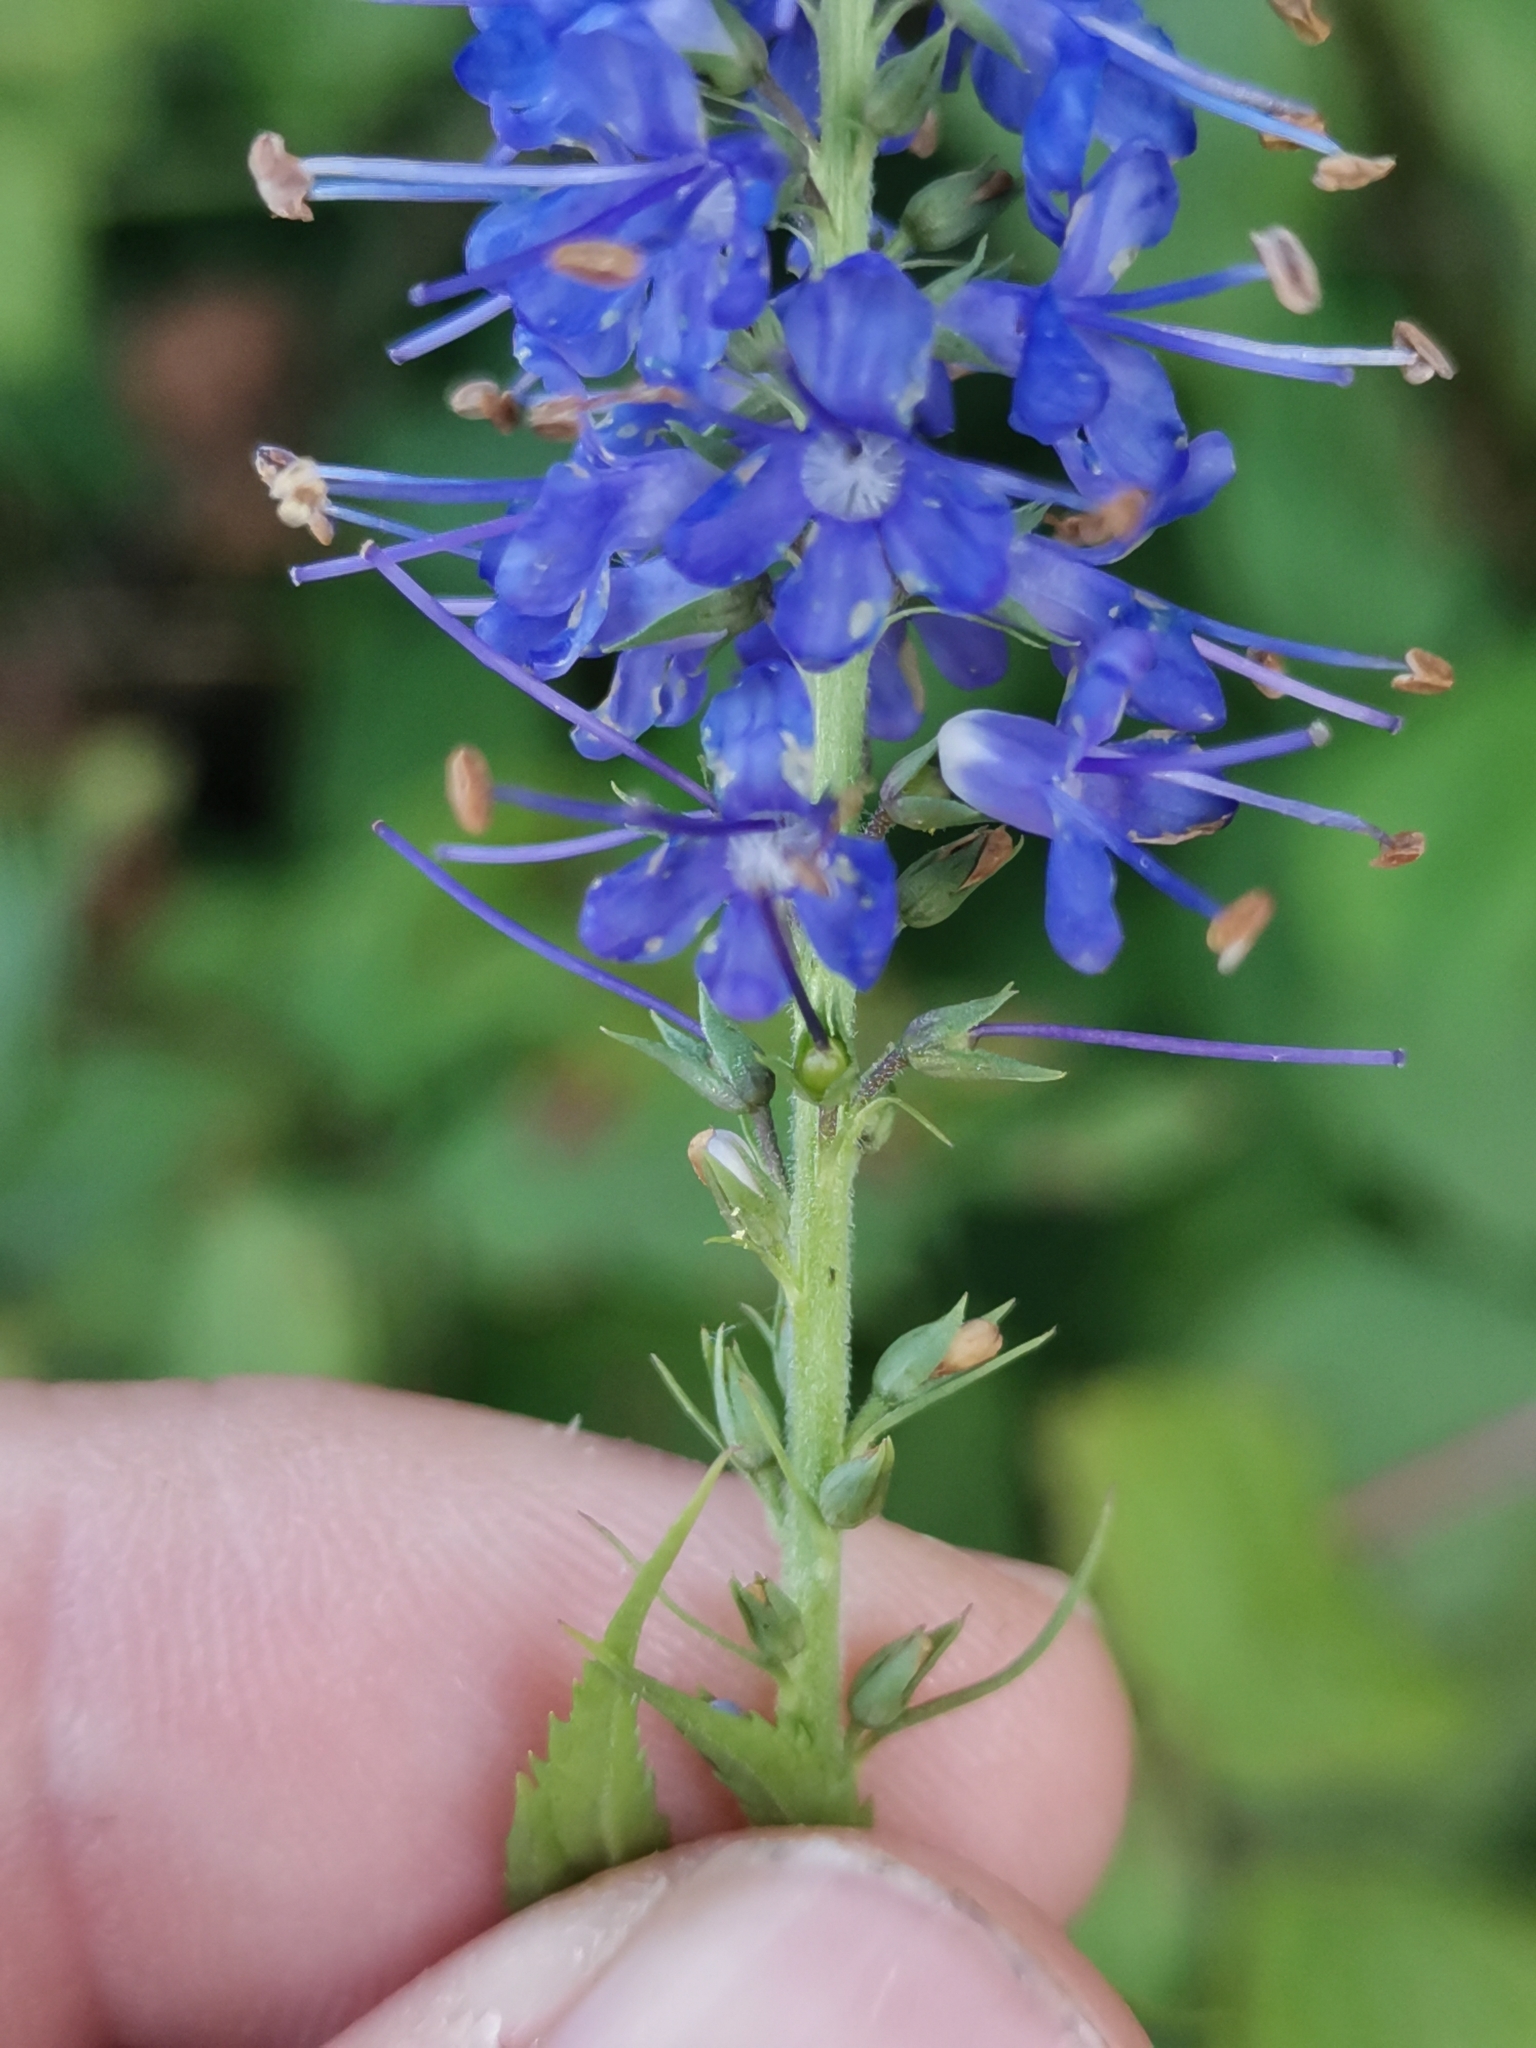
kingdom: Plantae
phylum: Tracheophyta
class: Magnoliopsida
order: Lamiales
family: Plantaginaceae
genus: Veronica
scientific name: Veronica longifolia
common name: Garden speedwell
